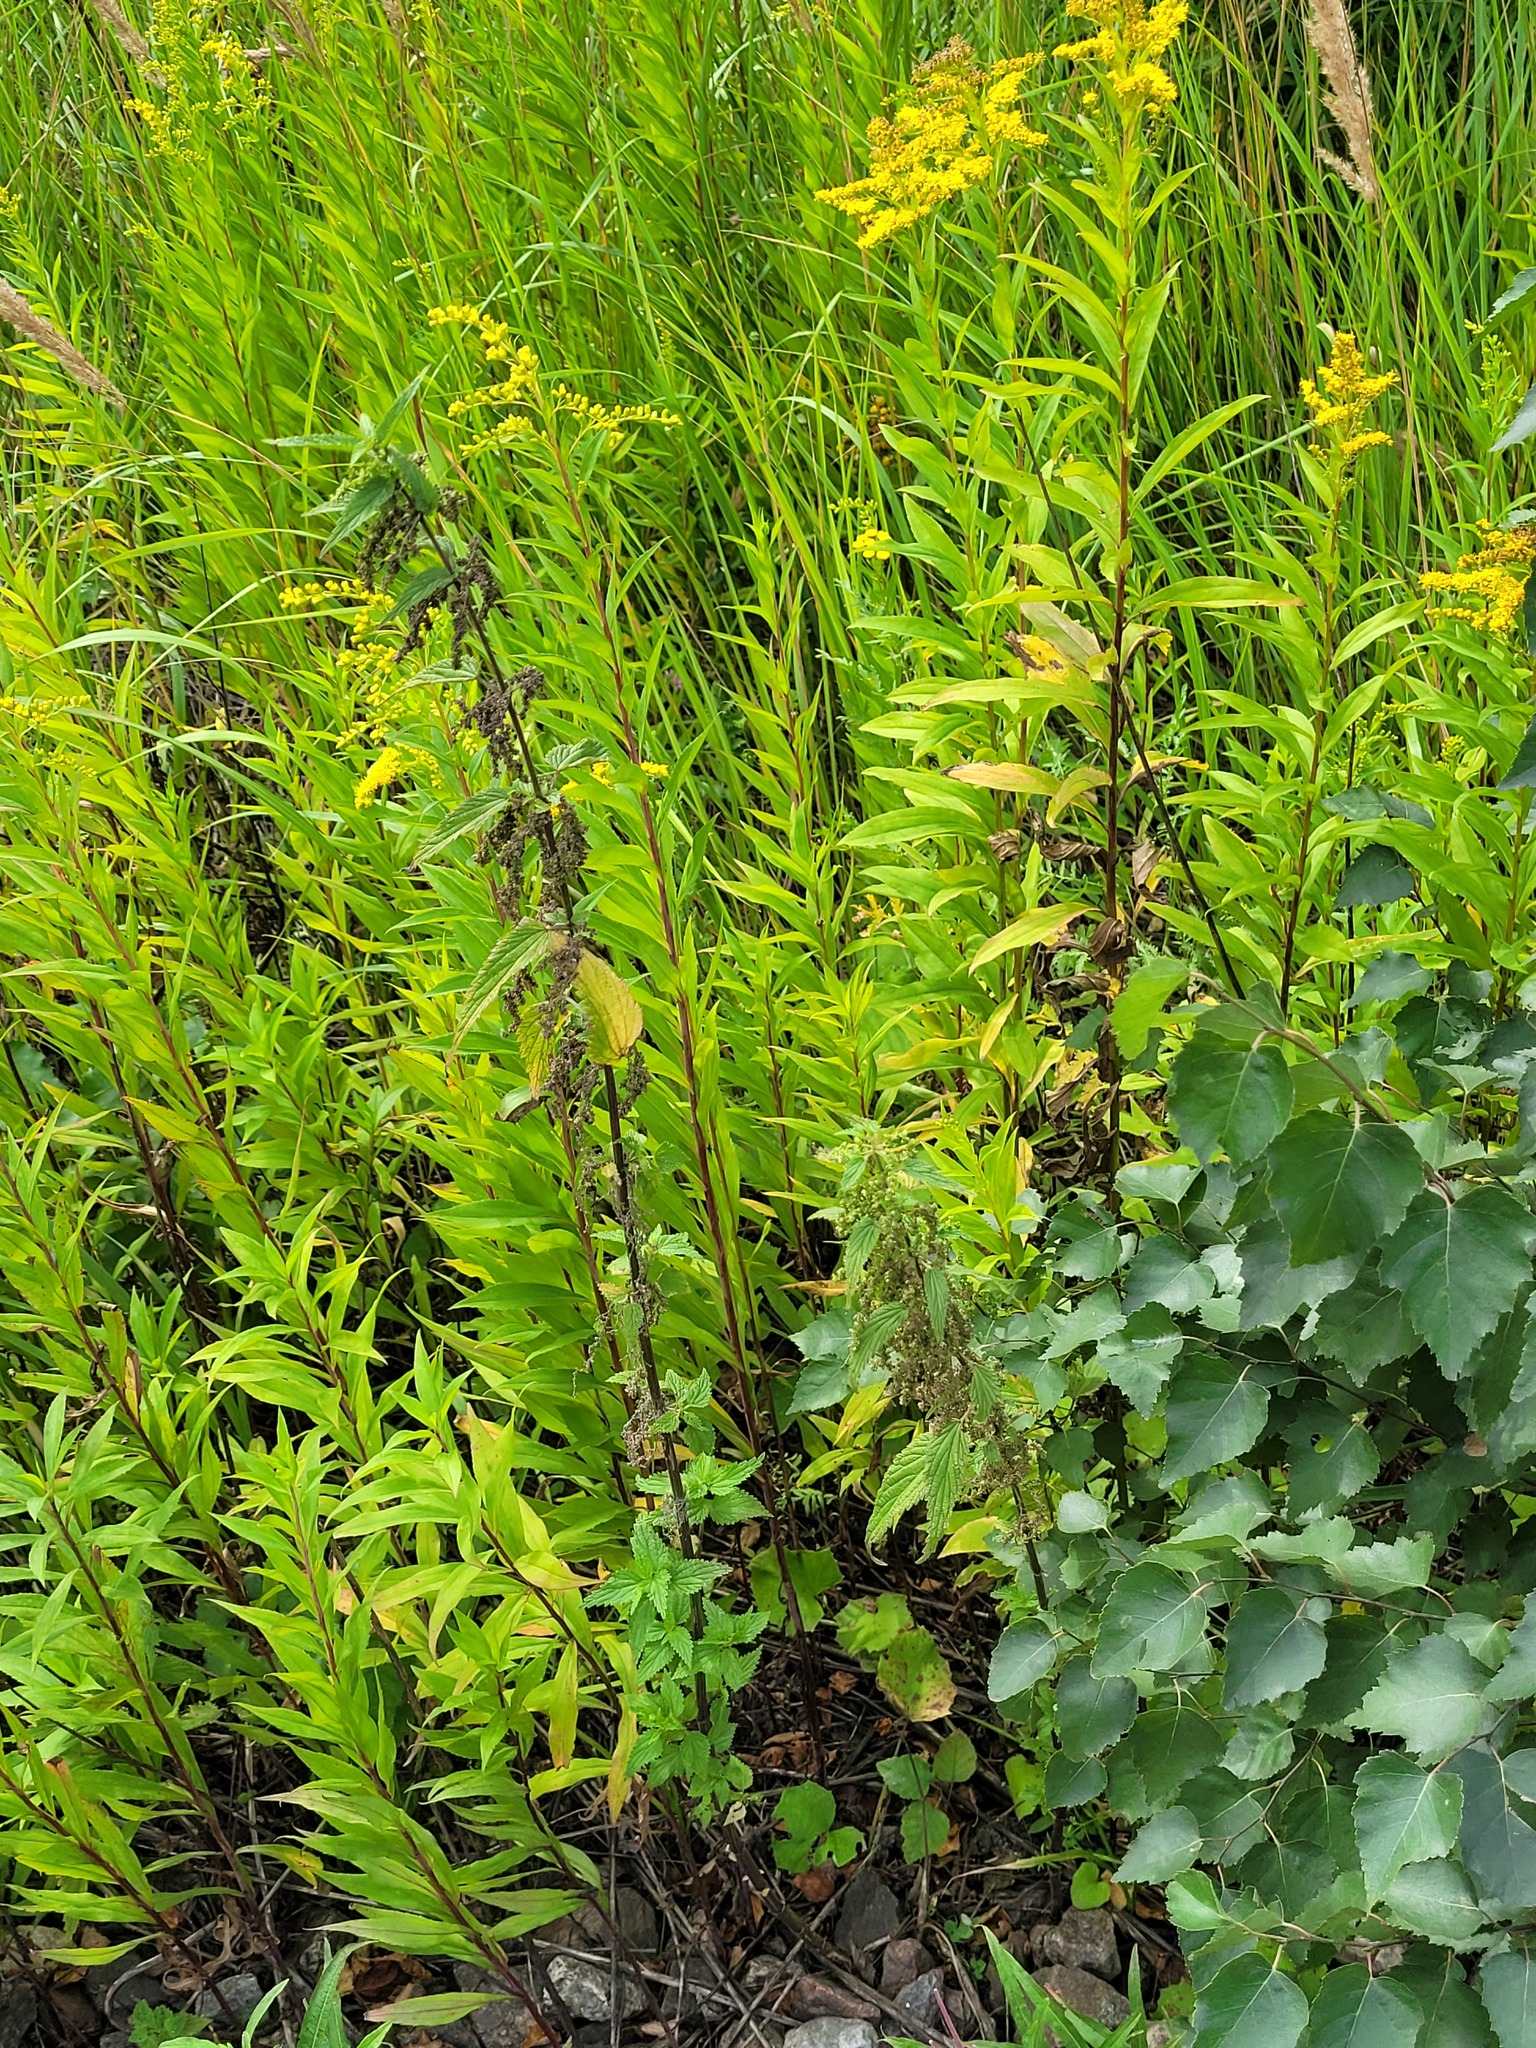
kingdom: Plantae
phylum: Tracheophyta
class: Magnoliopsida
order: Asterales
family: Asteraceae
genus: Solidago
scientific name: Solidago gigantea
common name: Giant goldenrod
